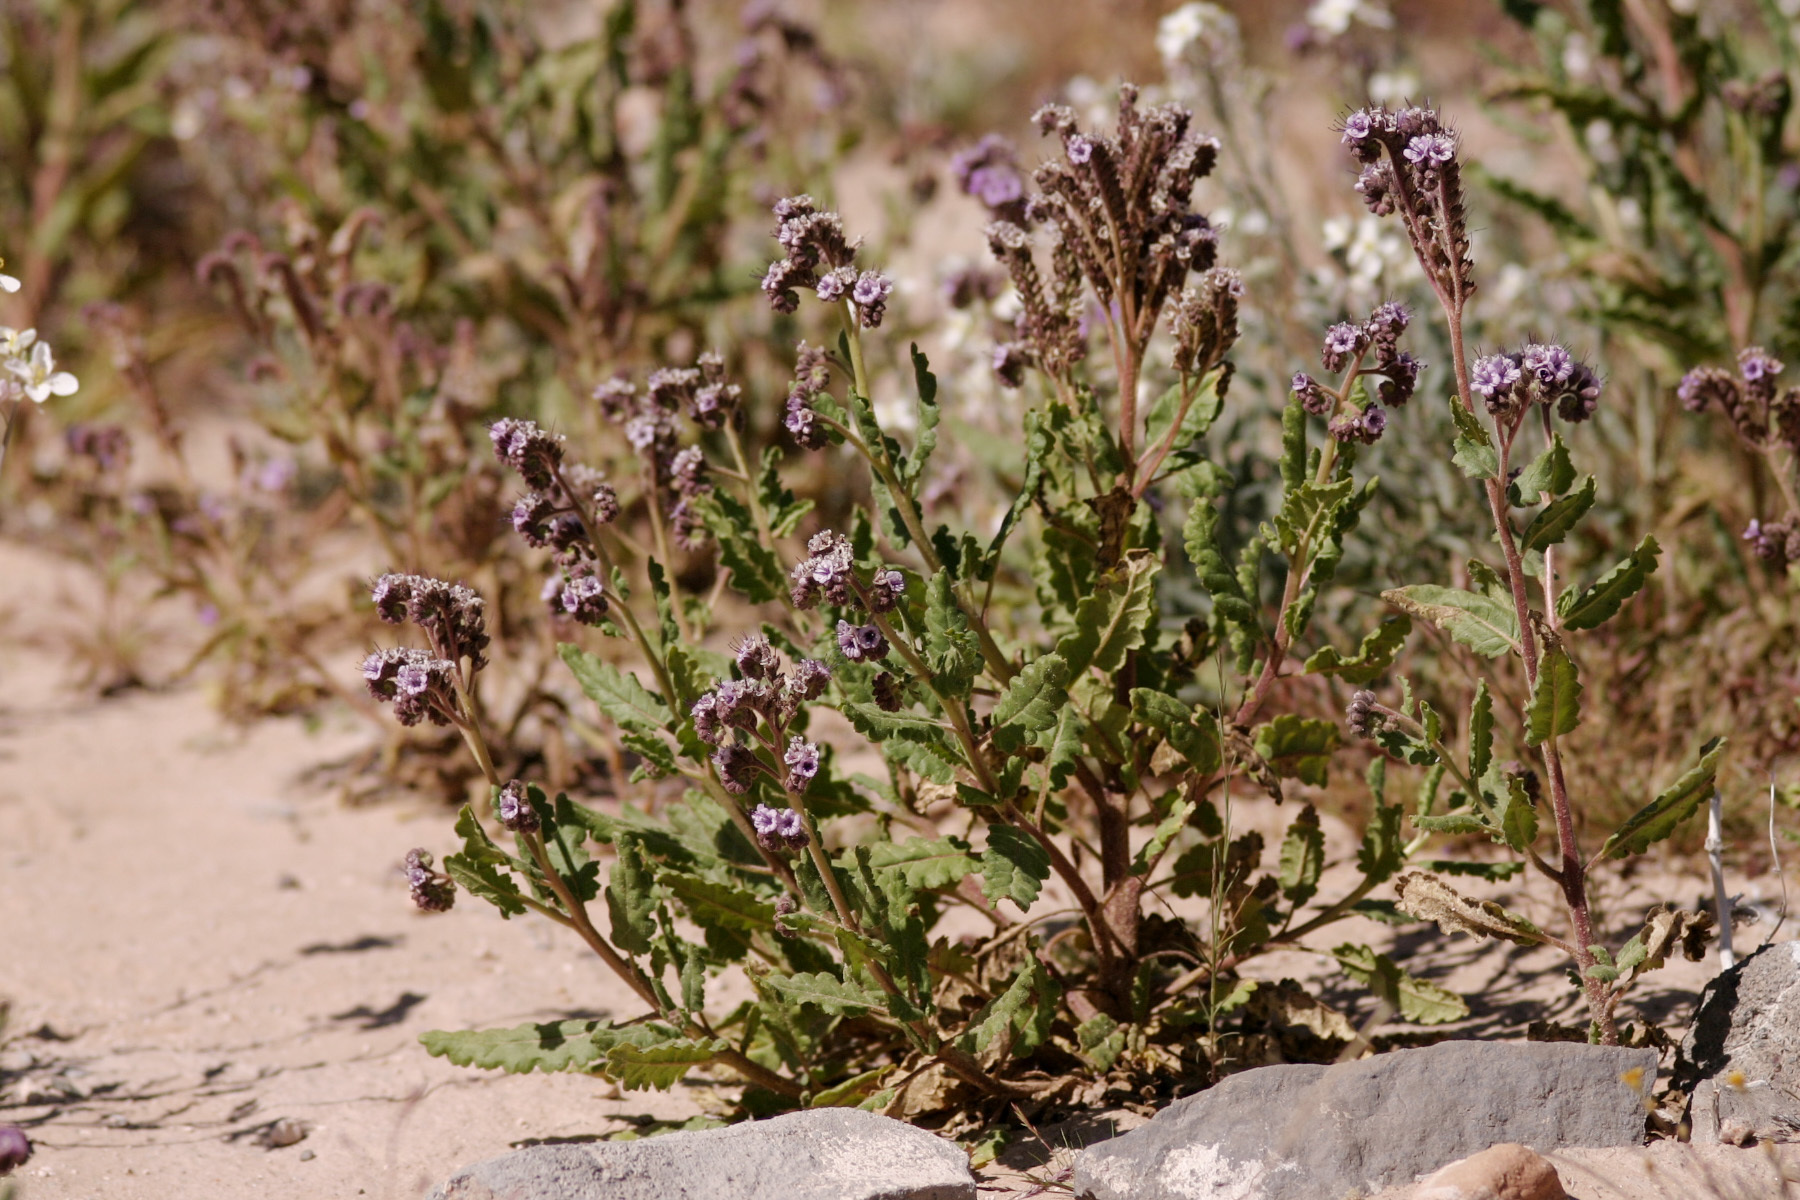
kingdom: Plantae
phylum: Tracheophyta
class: Magnoliopsida
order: Boraginales
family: Hydrophyllaceae
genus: Phacelia
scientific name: Phacelia integrifolia
